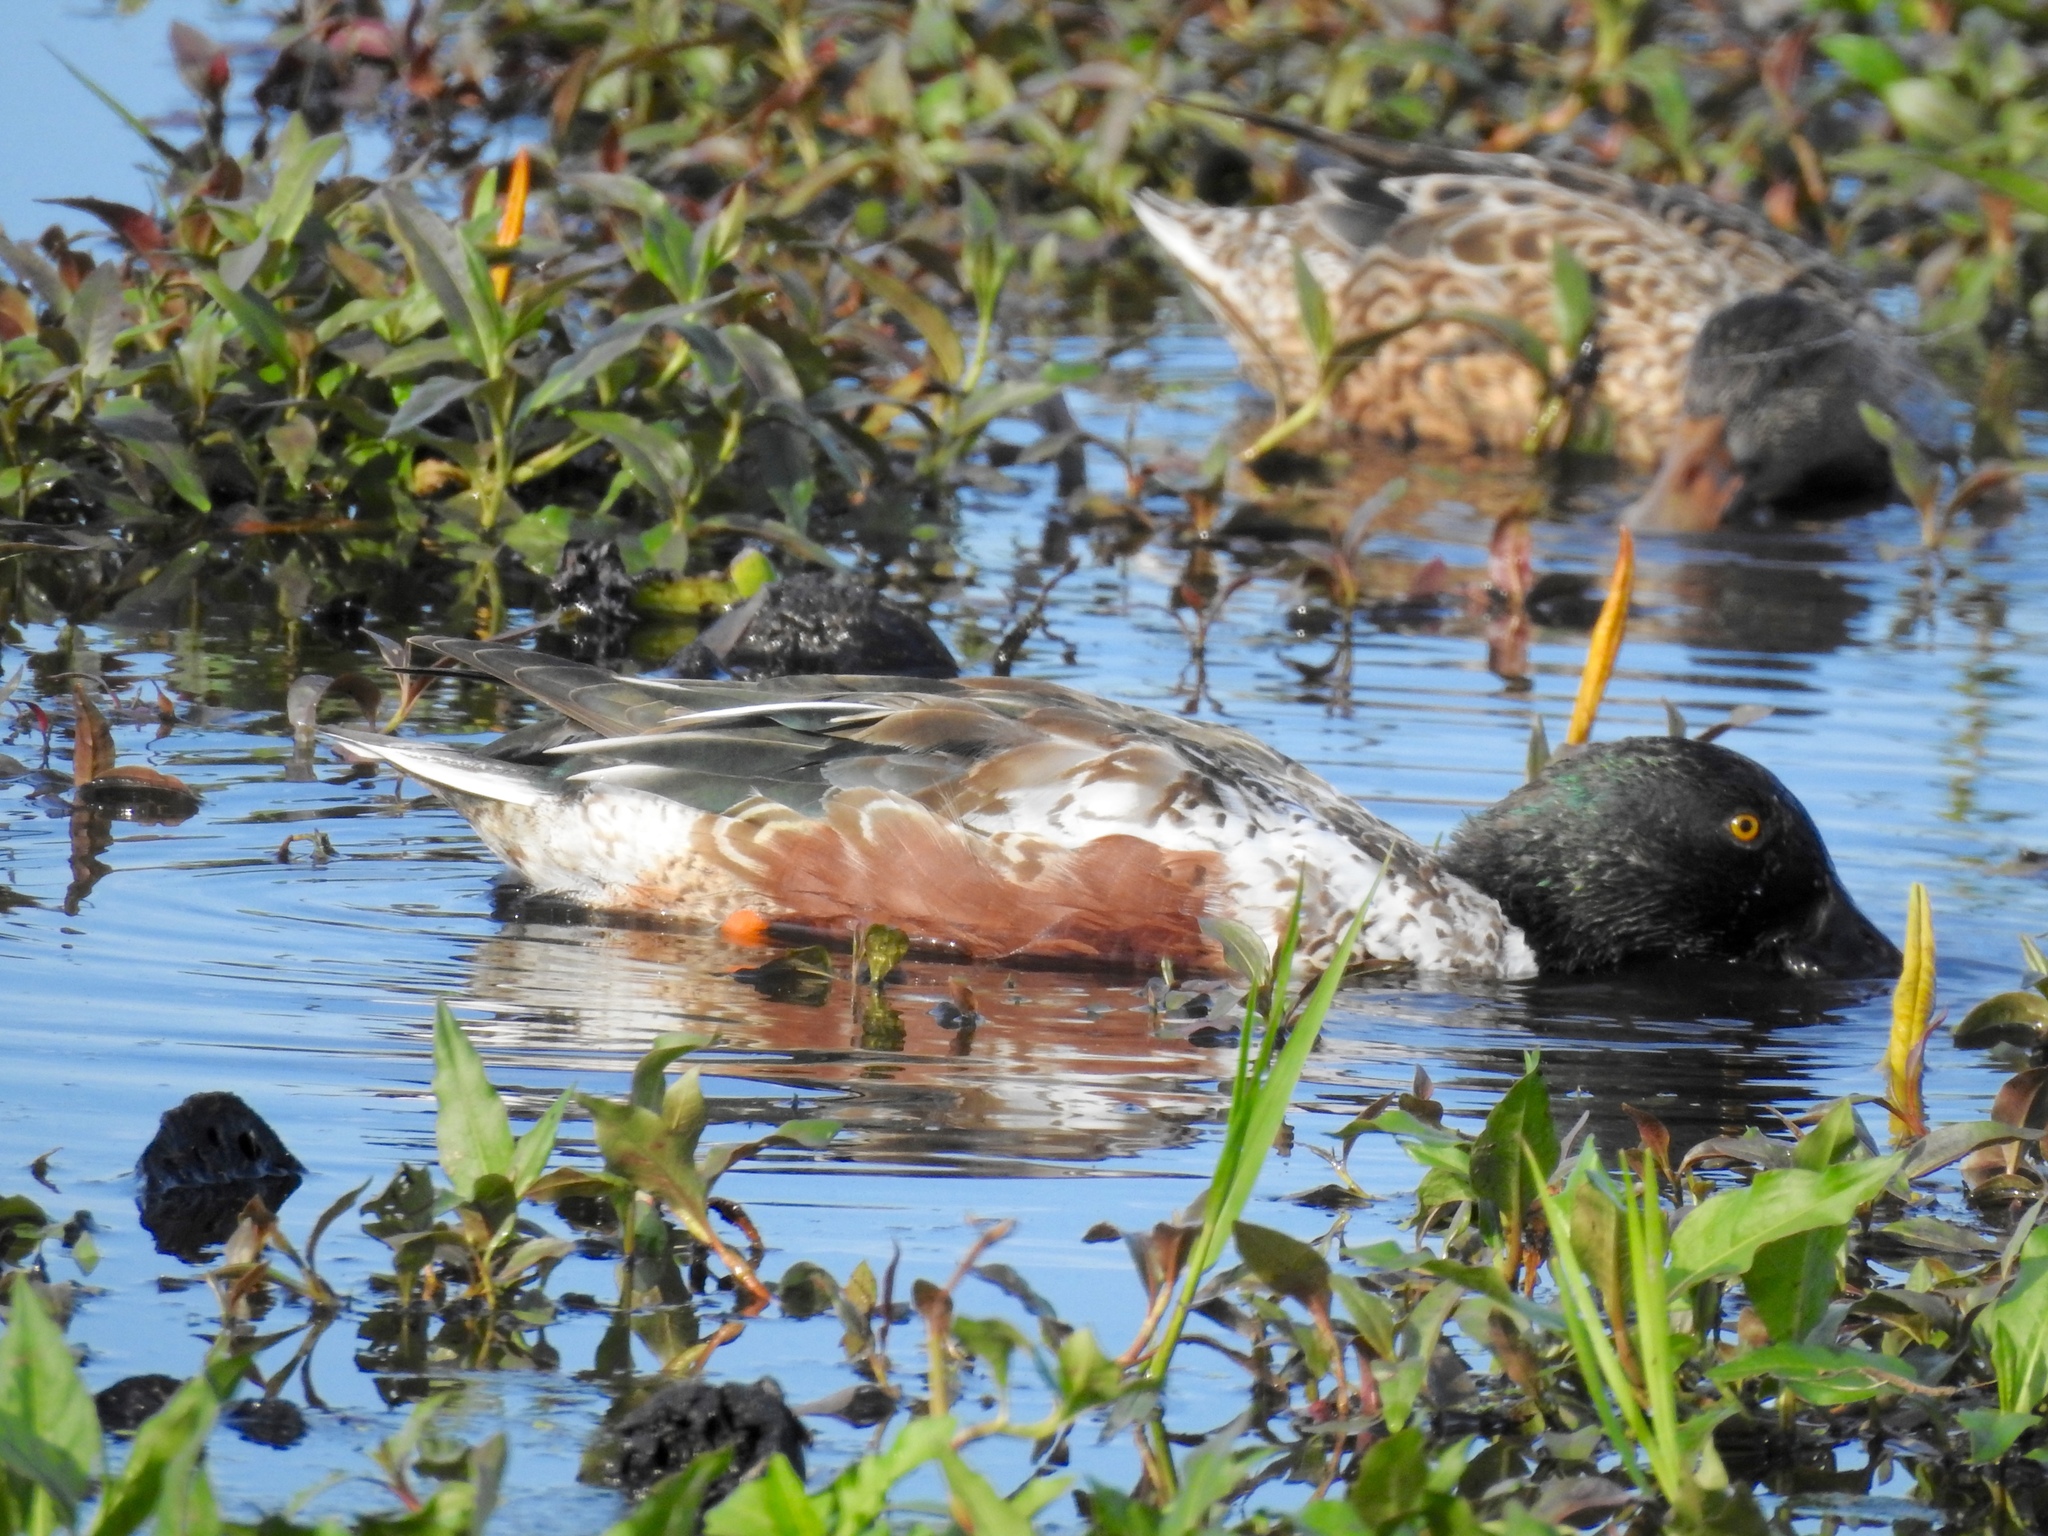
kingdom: Animalia
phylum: Chordata
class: Aves
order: Anseriformes
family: Anatidae
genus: Spatula
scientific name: Spatula clypeata
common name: Northern shoveler
